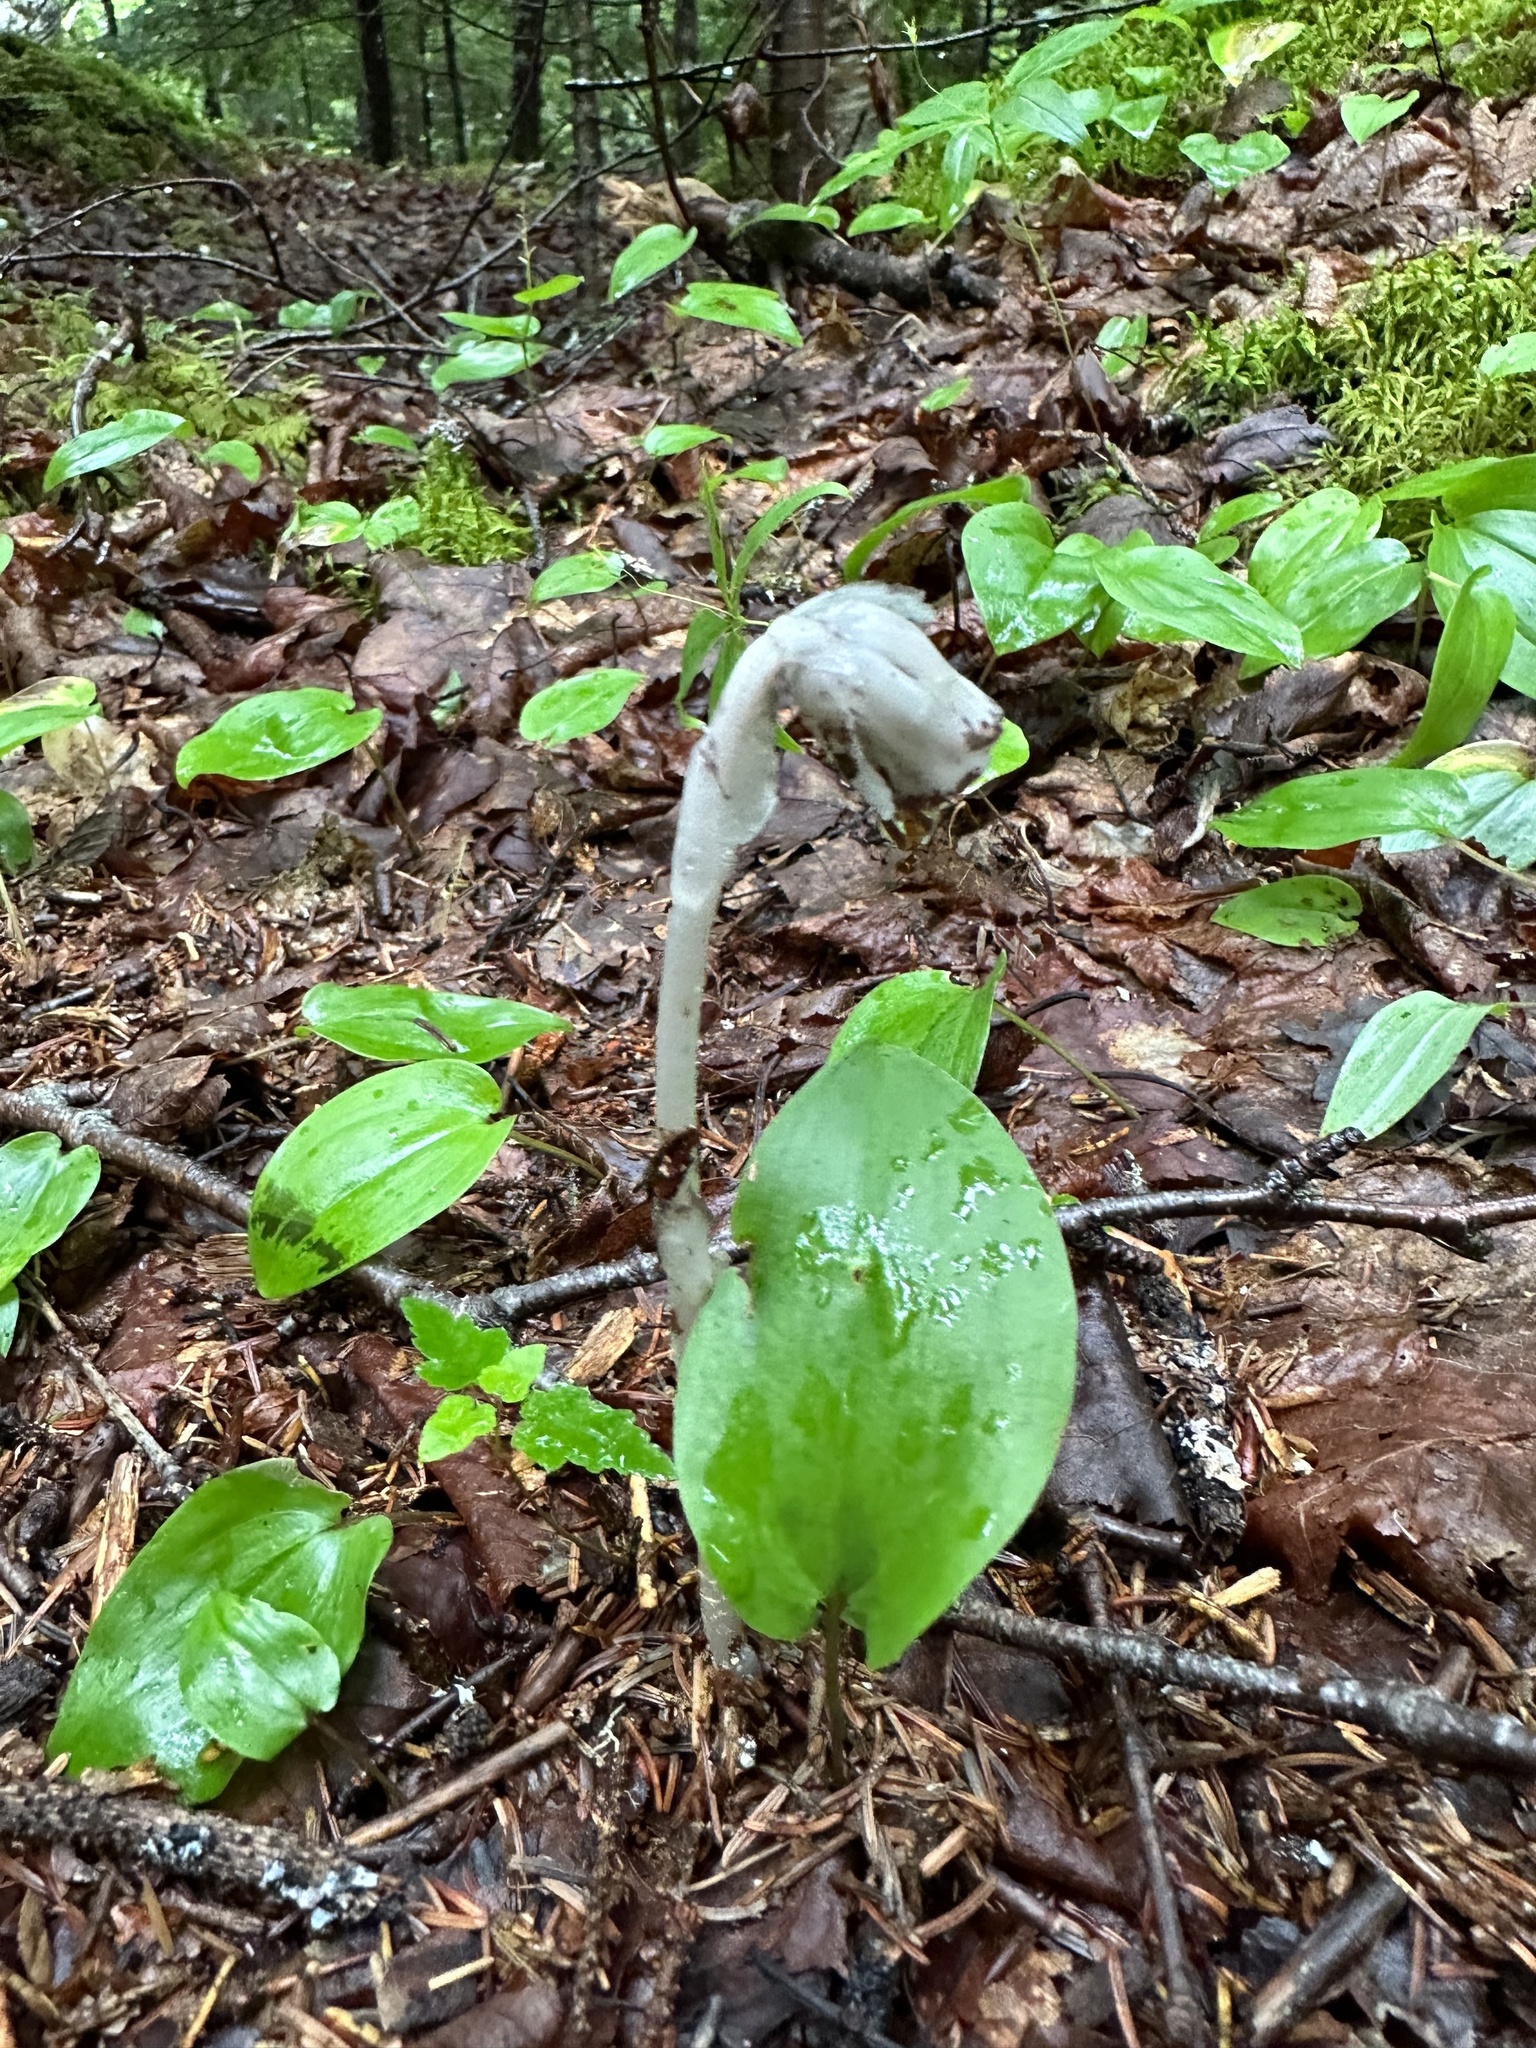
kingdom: Plantae
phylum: Tracheophyta
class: Magnoliopsida
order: Ericales
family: Ericaceae
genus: Monotropa
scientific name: Monotropa uniflora
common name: Convulsion root
